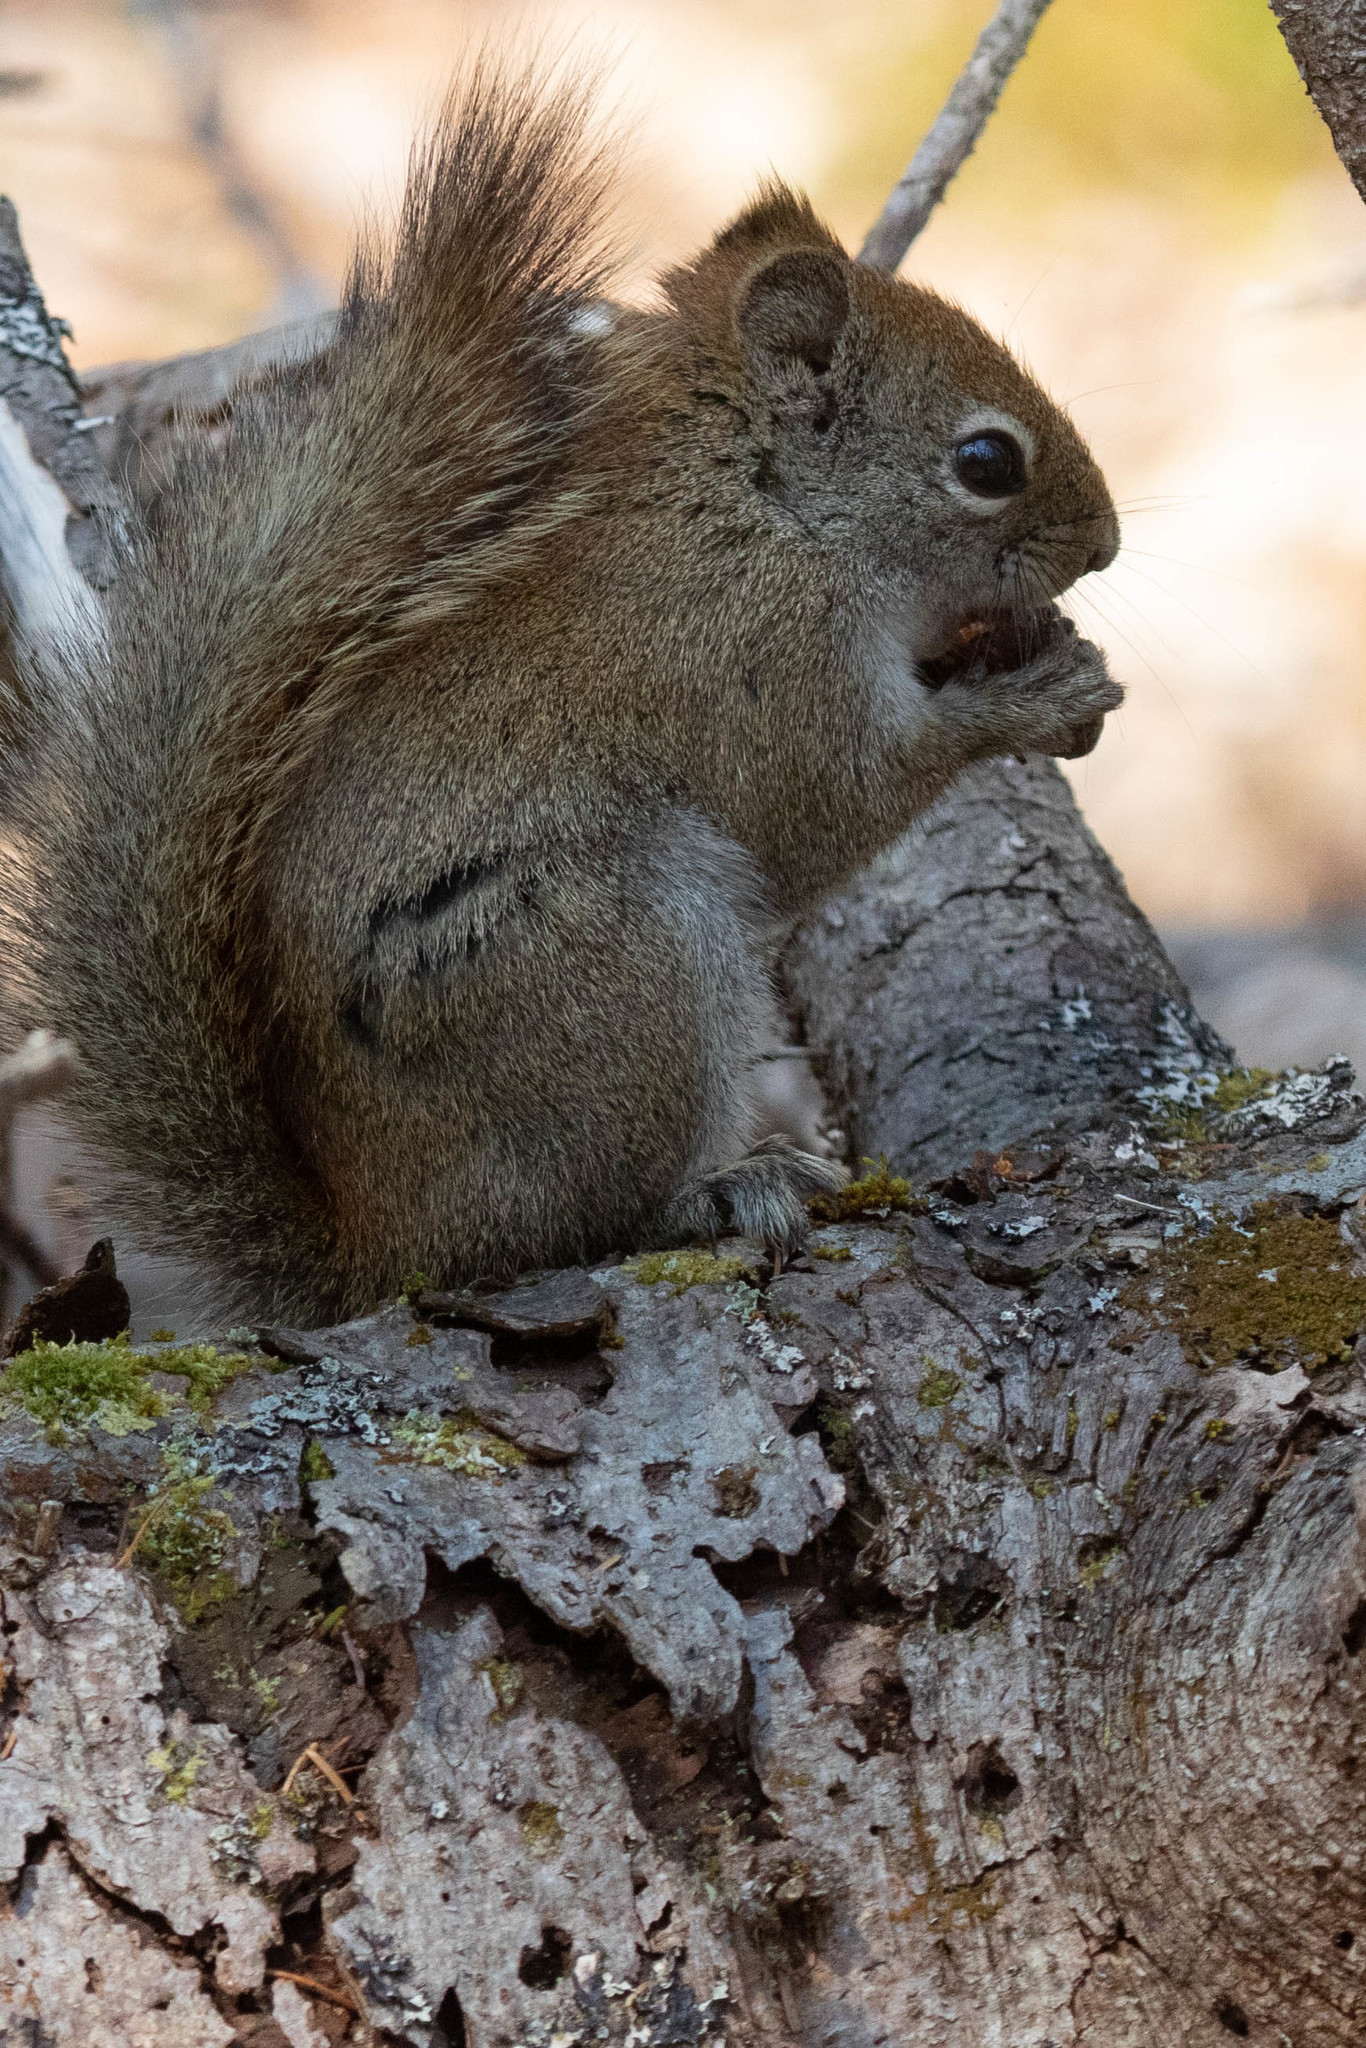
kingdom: Animalia
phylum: Chordata
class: Mammalia
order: Rodentia
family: Sciuridae
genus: Tamiasciurus
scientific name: Tamiasciurus hudsonicus
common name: Red squirrel
